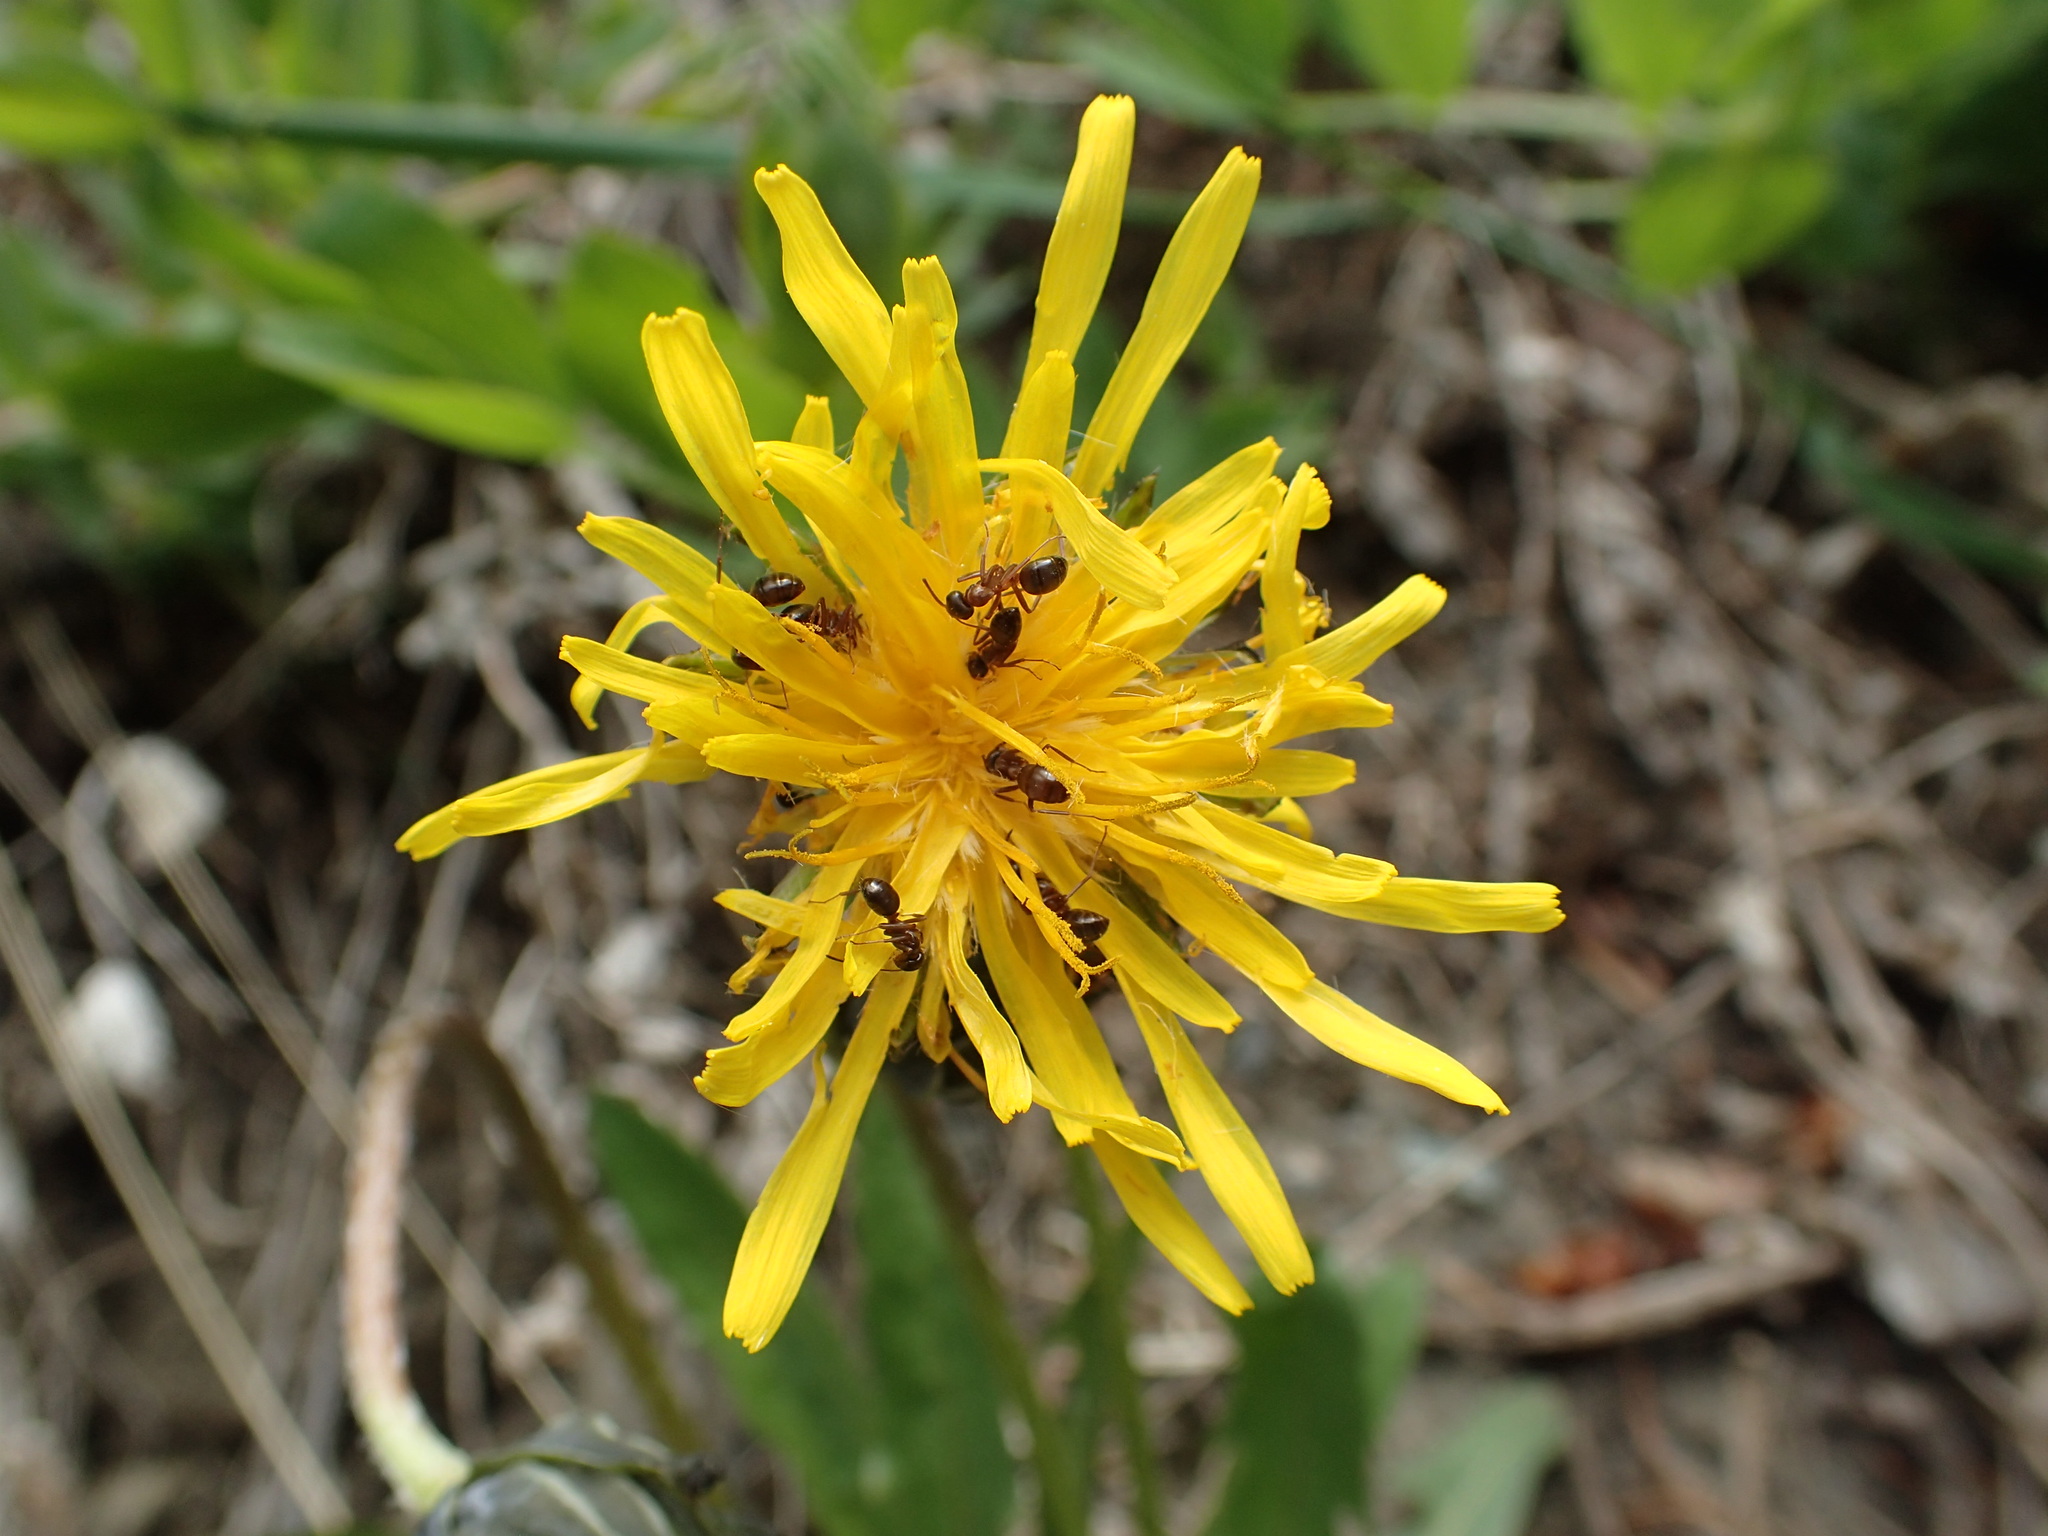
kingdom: Animalia
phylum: Arthropoda
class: Insecta
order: Hymenoptera
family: Formicidae
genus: Formica
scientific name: Formica neorufibarbis
